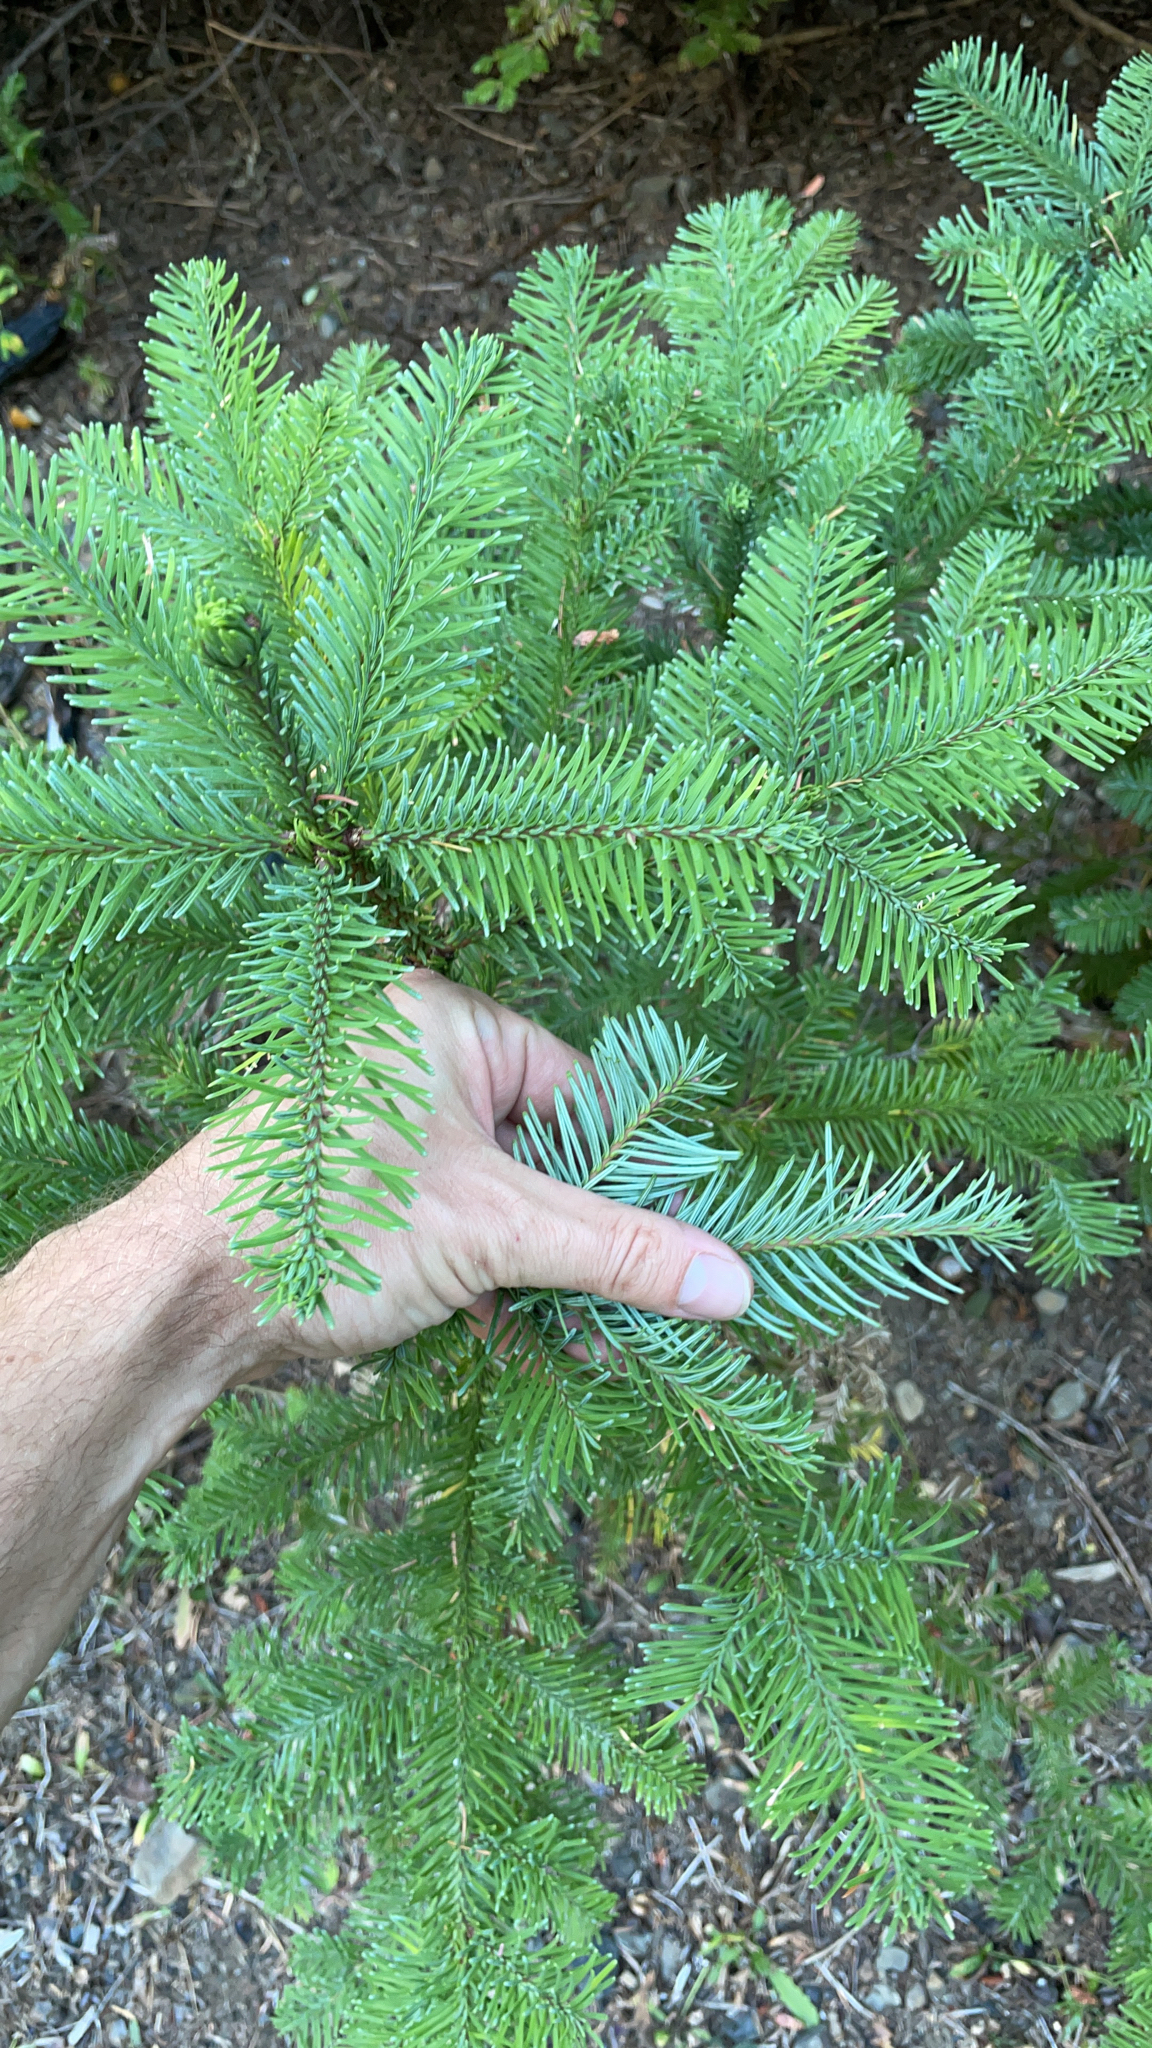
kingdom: Plantae
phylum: Tracheophyta
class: Pinopsida
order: Pinales
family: Pinaceae
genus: Abies
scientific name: Abies procera
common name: Noble fir
